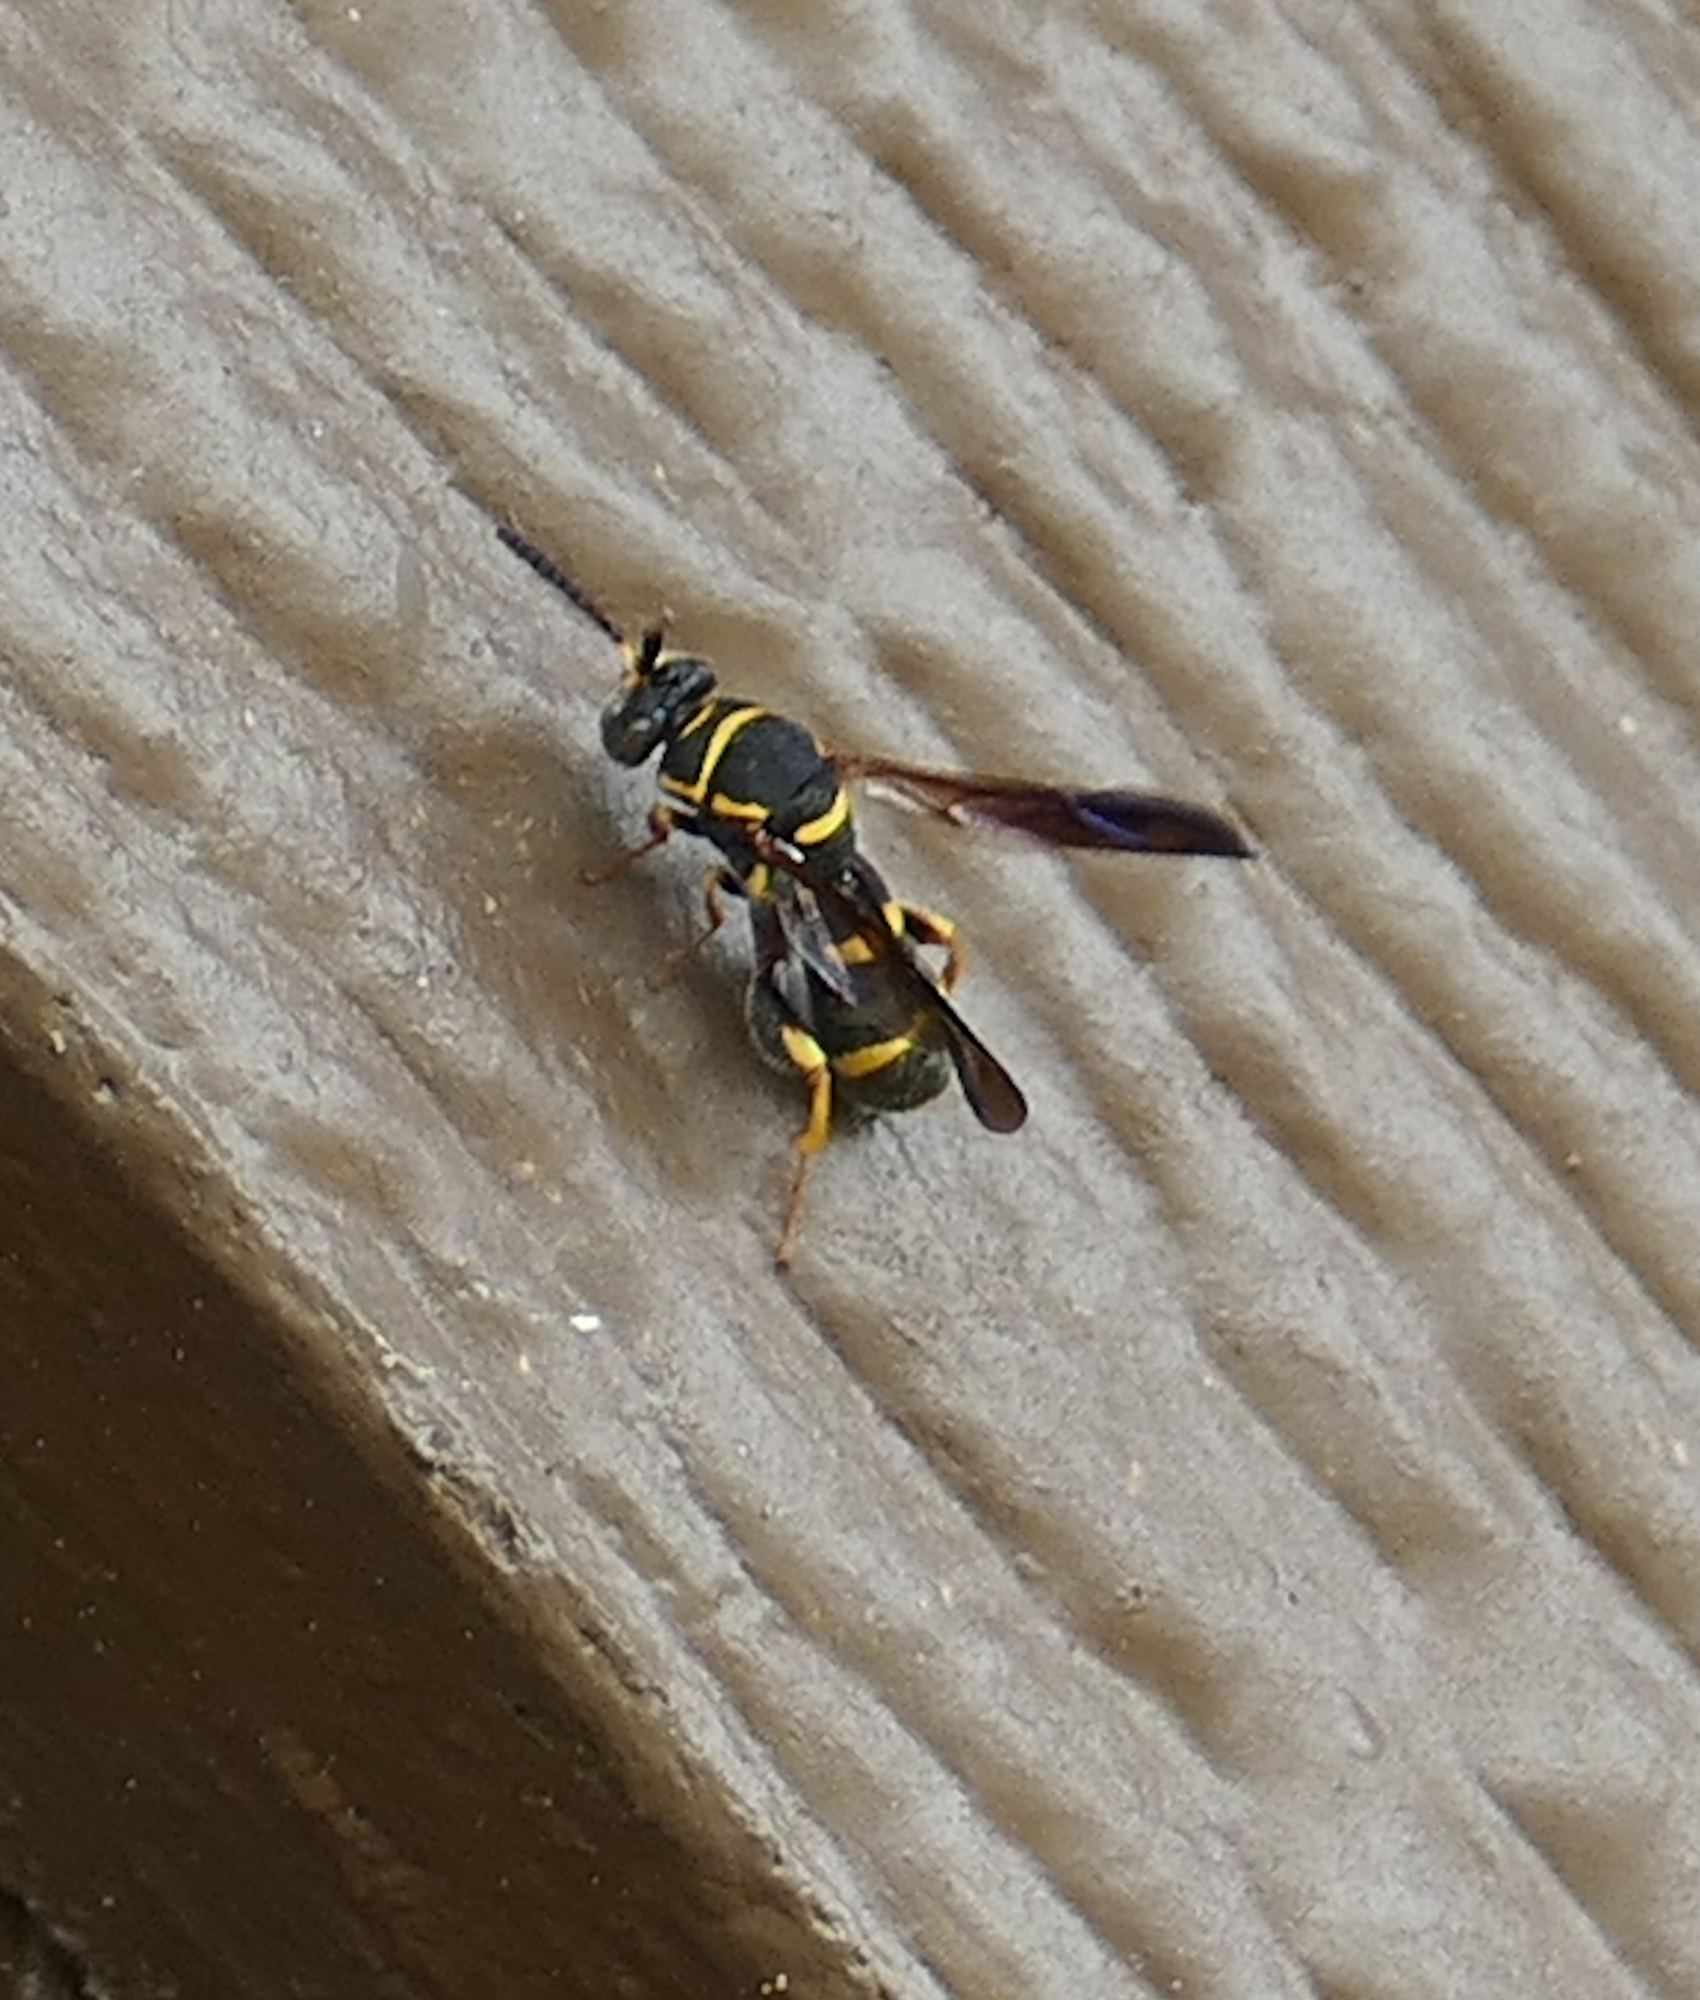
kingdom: Animalia
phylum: Arthropoda
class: Insecta
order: Hymenoptera
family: Leucospidae
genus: Leucospis
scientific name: Leucospis affinis
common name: Wasp
